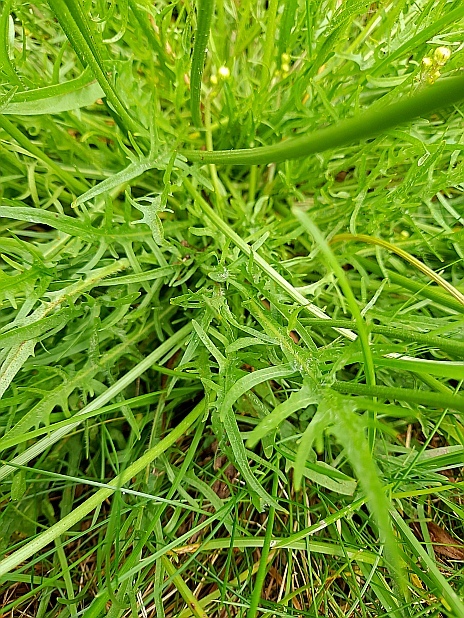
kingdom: Plantae
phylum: Tracheophyta
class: Magnoliopsida
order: Asterales
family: Asteraceae
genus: Scorzoneroides
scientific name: Scorzoneroides autumnalis
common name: Autumn hawkbit
